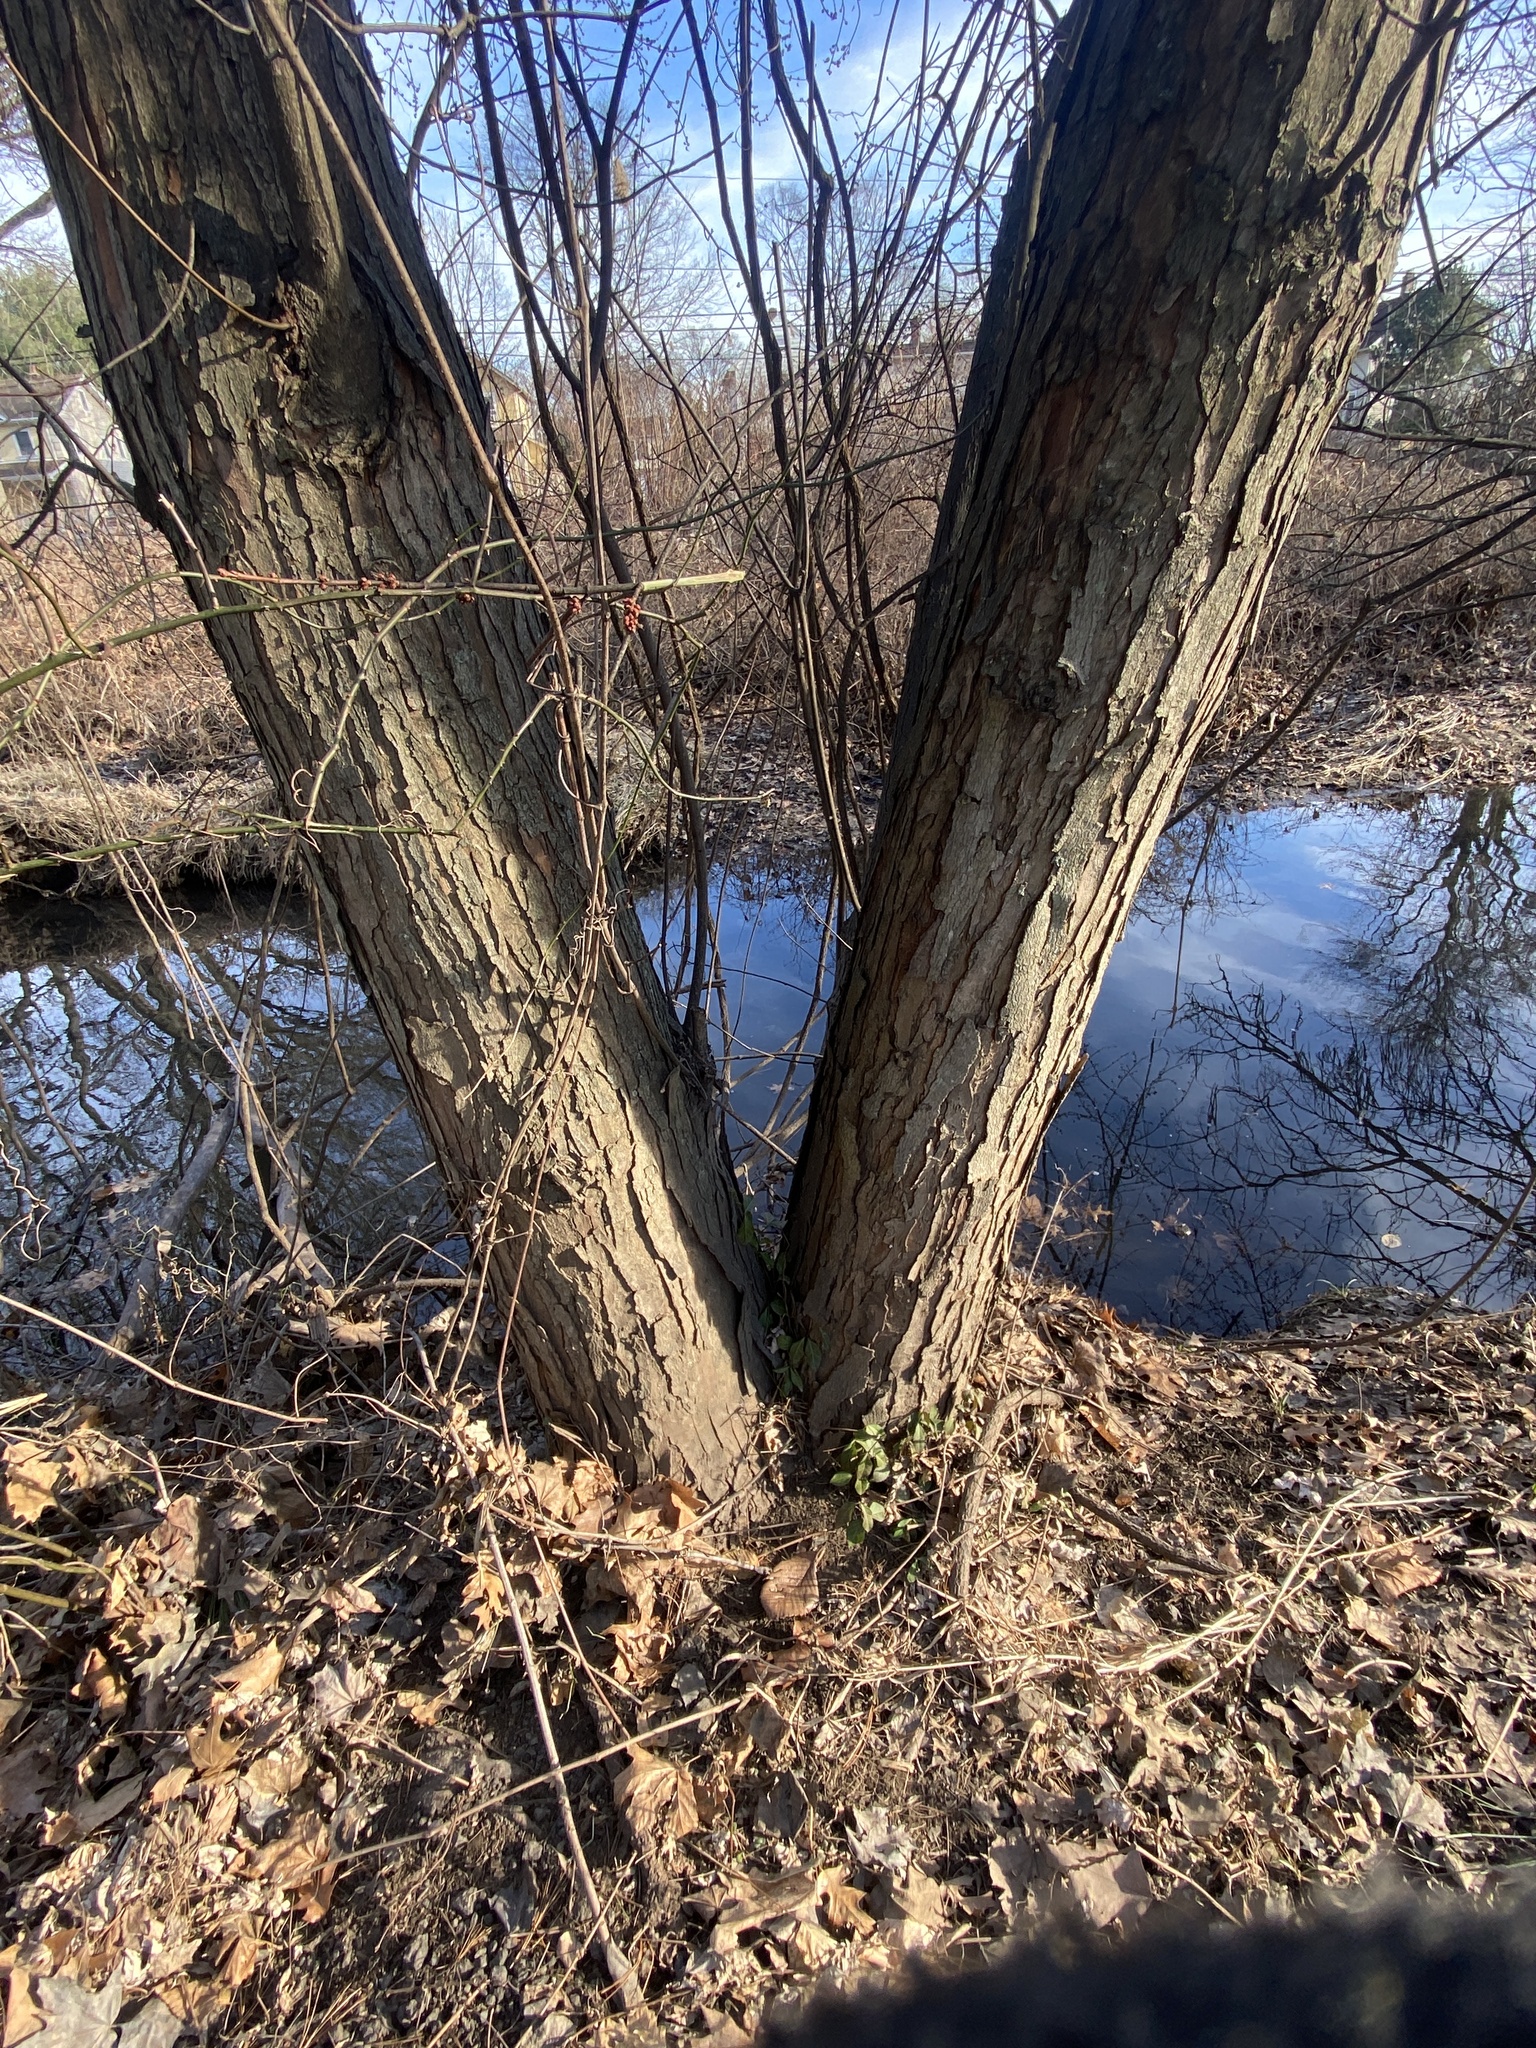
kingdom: Plantae
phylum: Tracheophyta
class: Magnoliopsida
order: Sapindales
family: Sapindaceae
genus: Acer
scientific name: Acer saccharinum
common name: Silver maple
